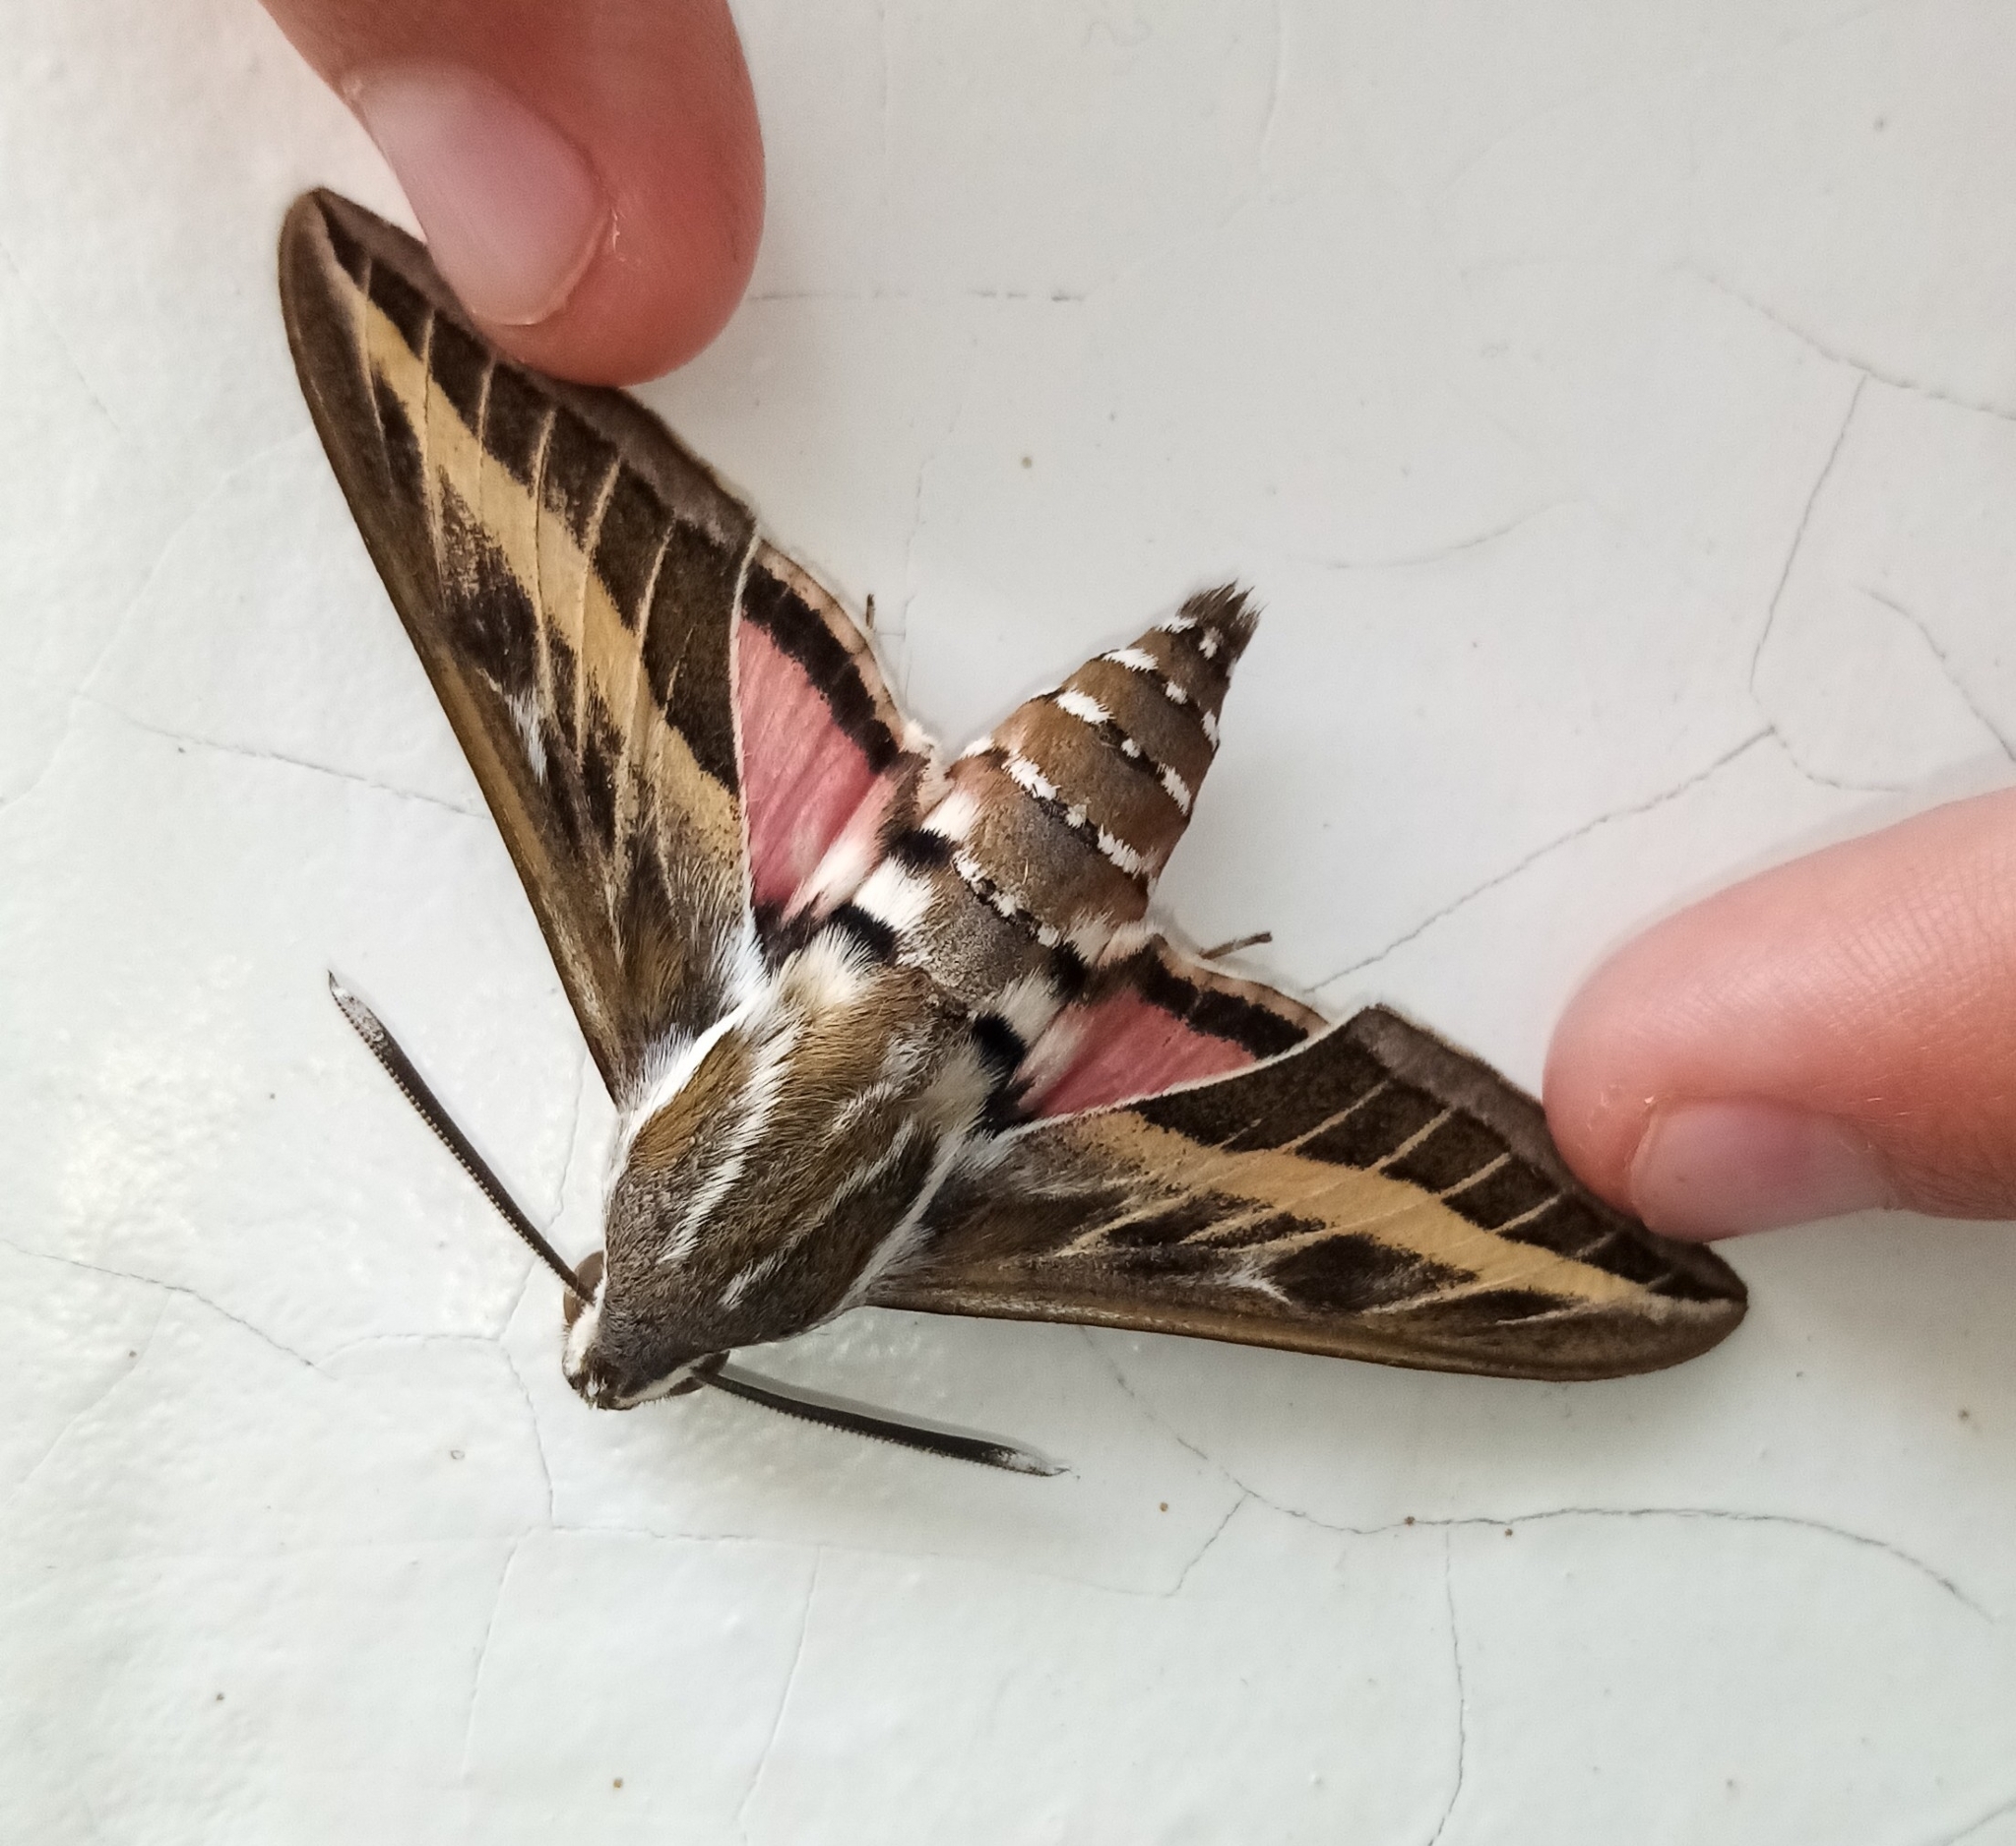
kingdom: Animalia
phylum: Arthropoda
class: Insecta
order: Lepidoptera
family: Sphingidae
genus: Hyles
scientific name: Hyles livornica
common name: Striped hawk-moth
